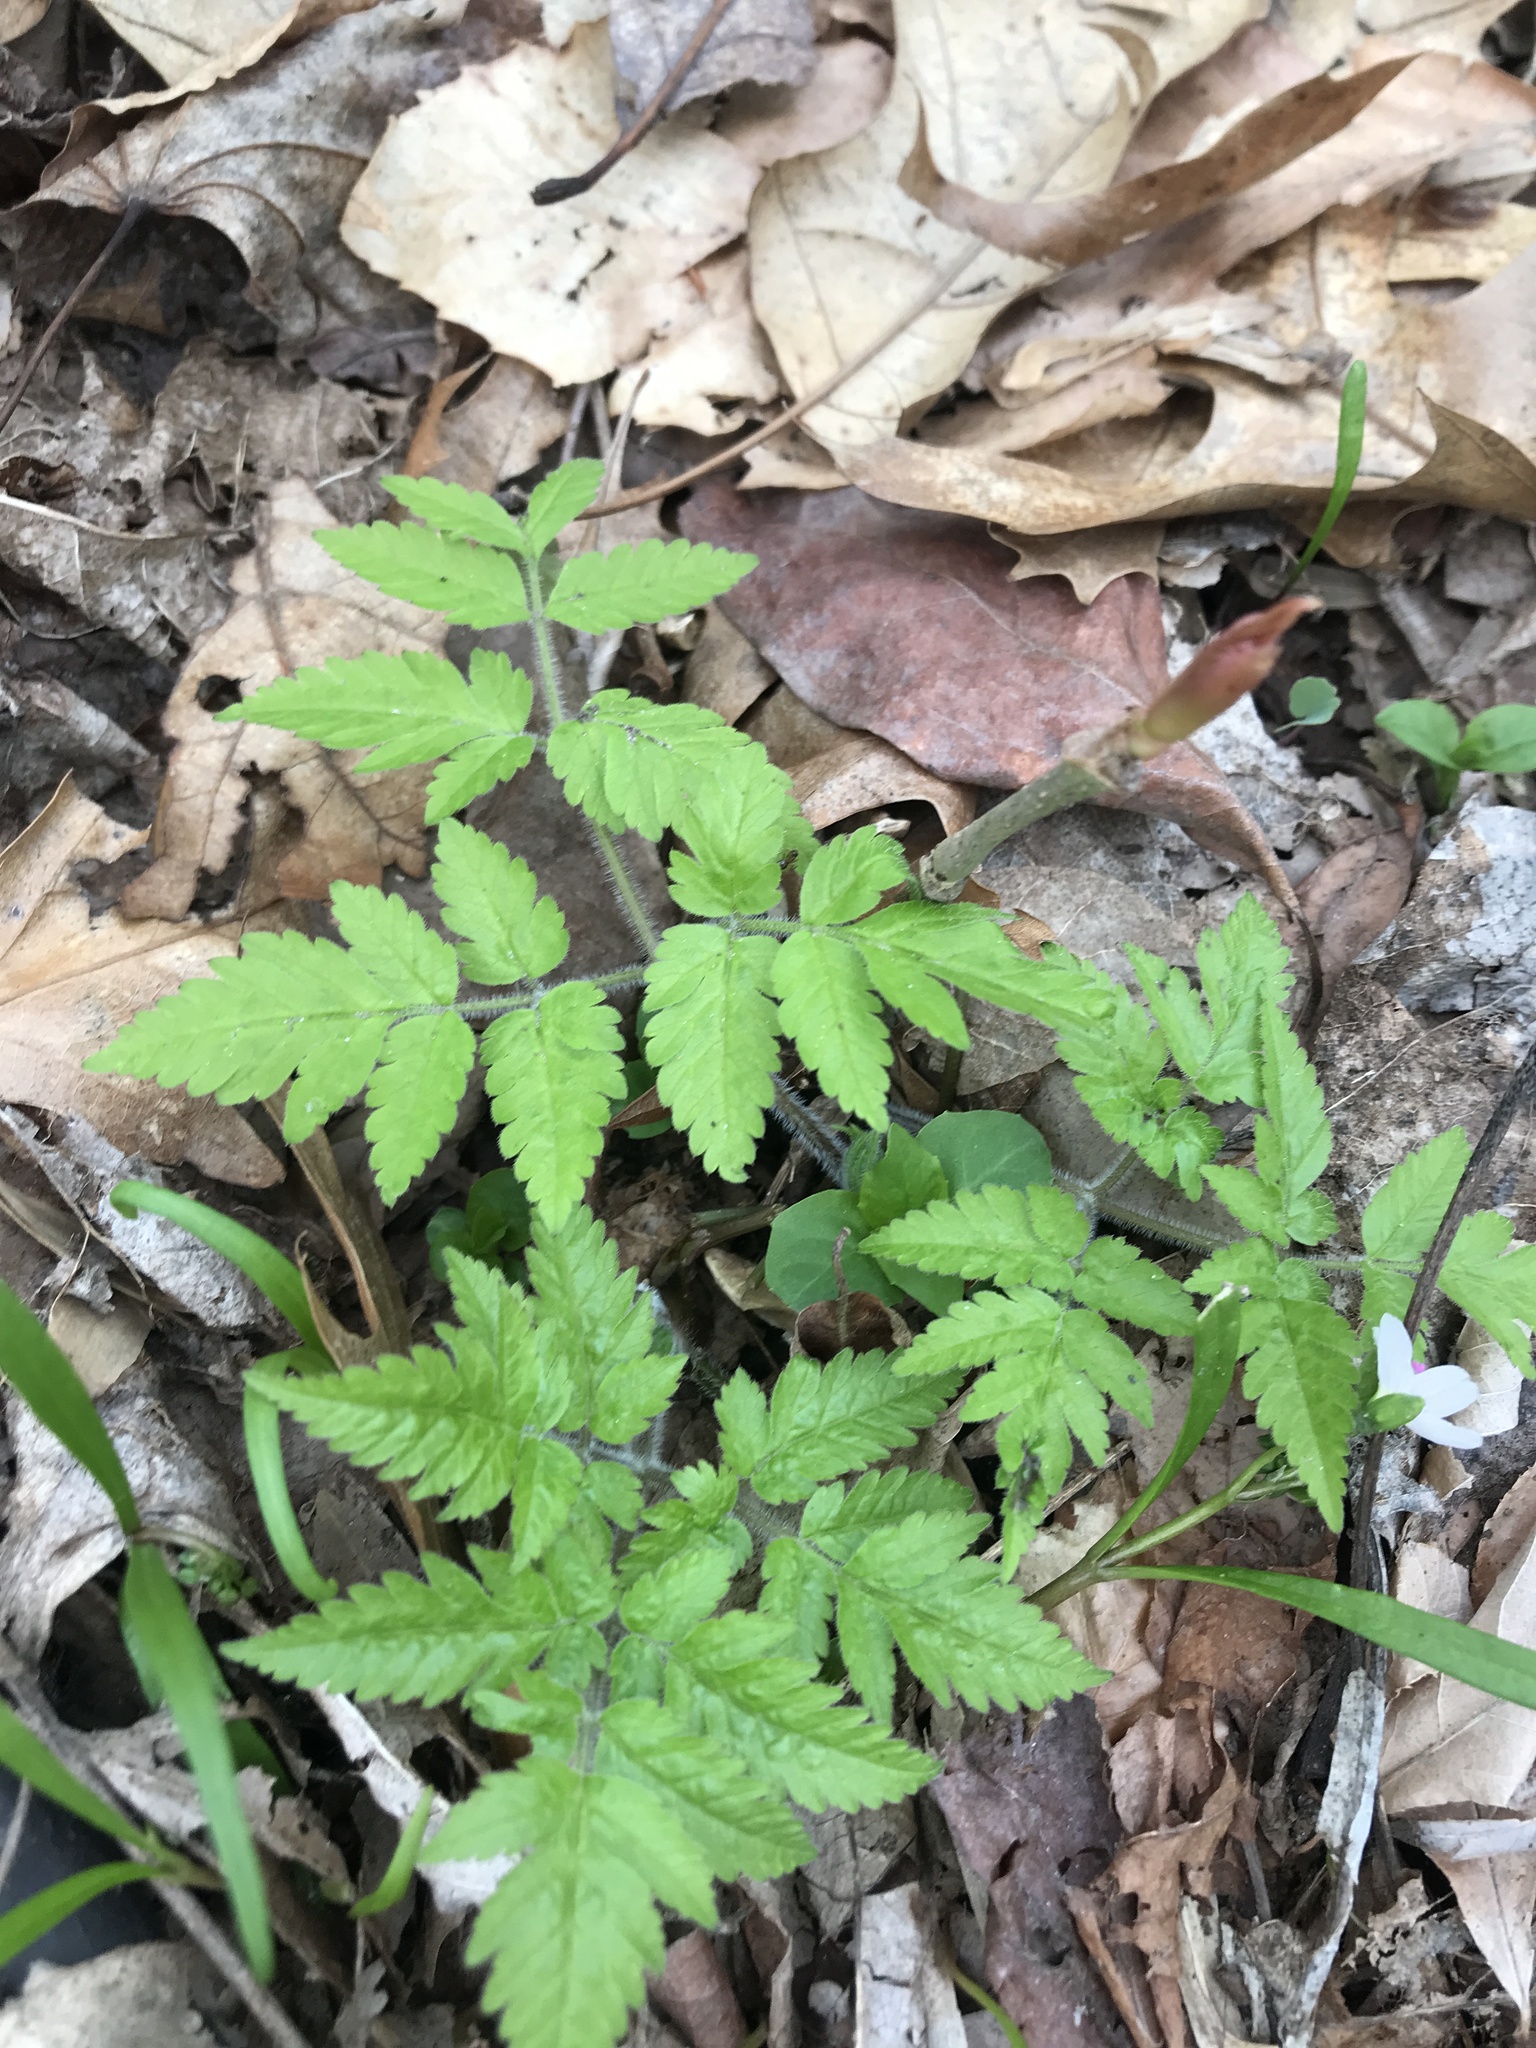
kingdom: Plantae
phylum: Tracheophyta
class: Magnoliopsida
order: Apiales
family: Apiaceae
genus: Osmorhiza
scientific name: Osmorhiza claytonii
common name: Hairy sweet cicely
